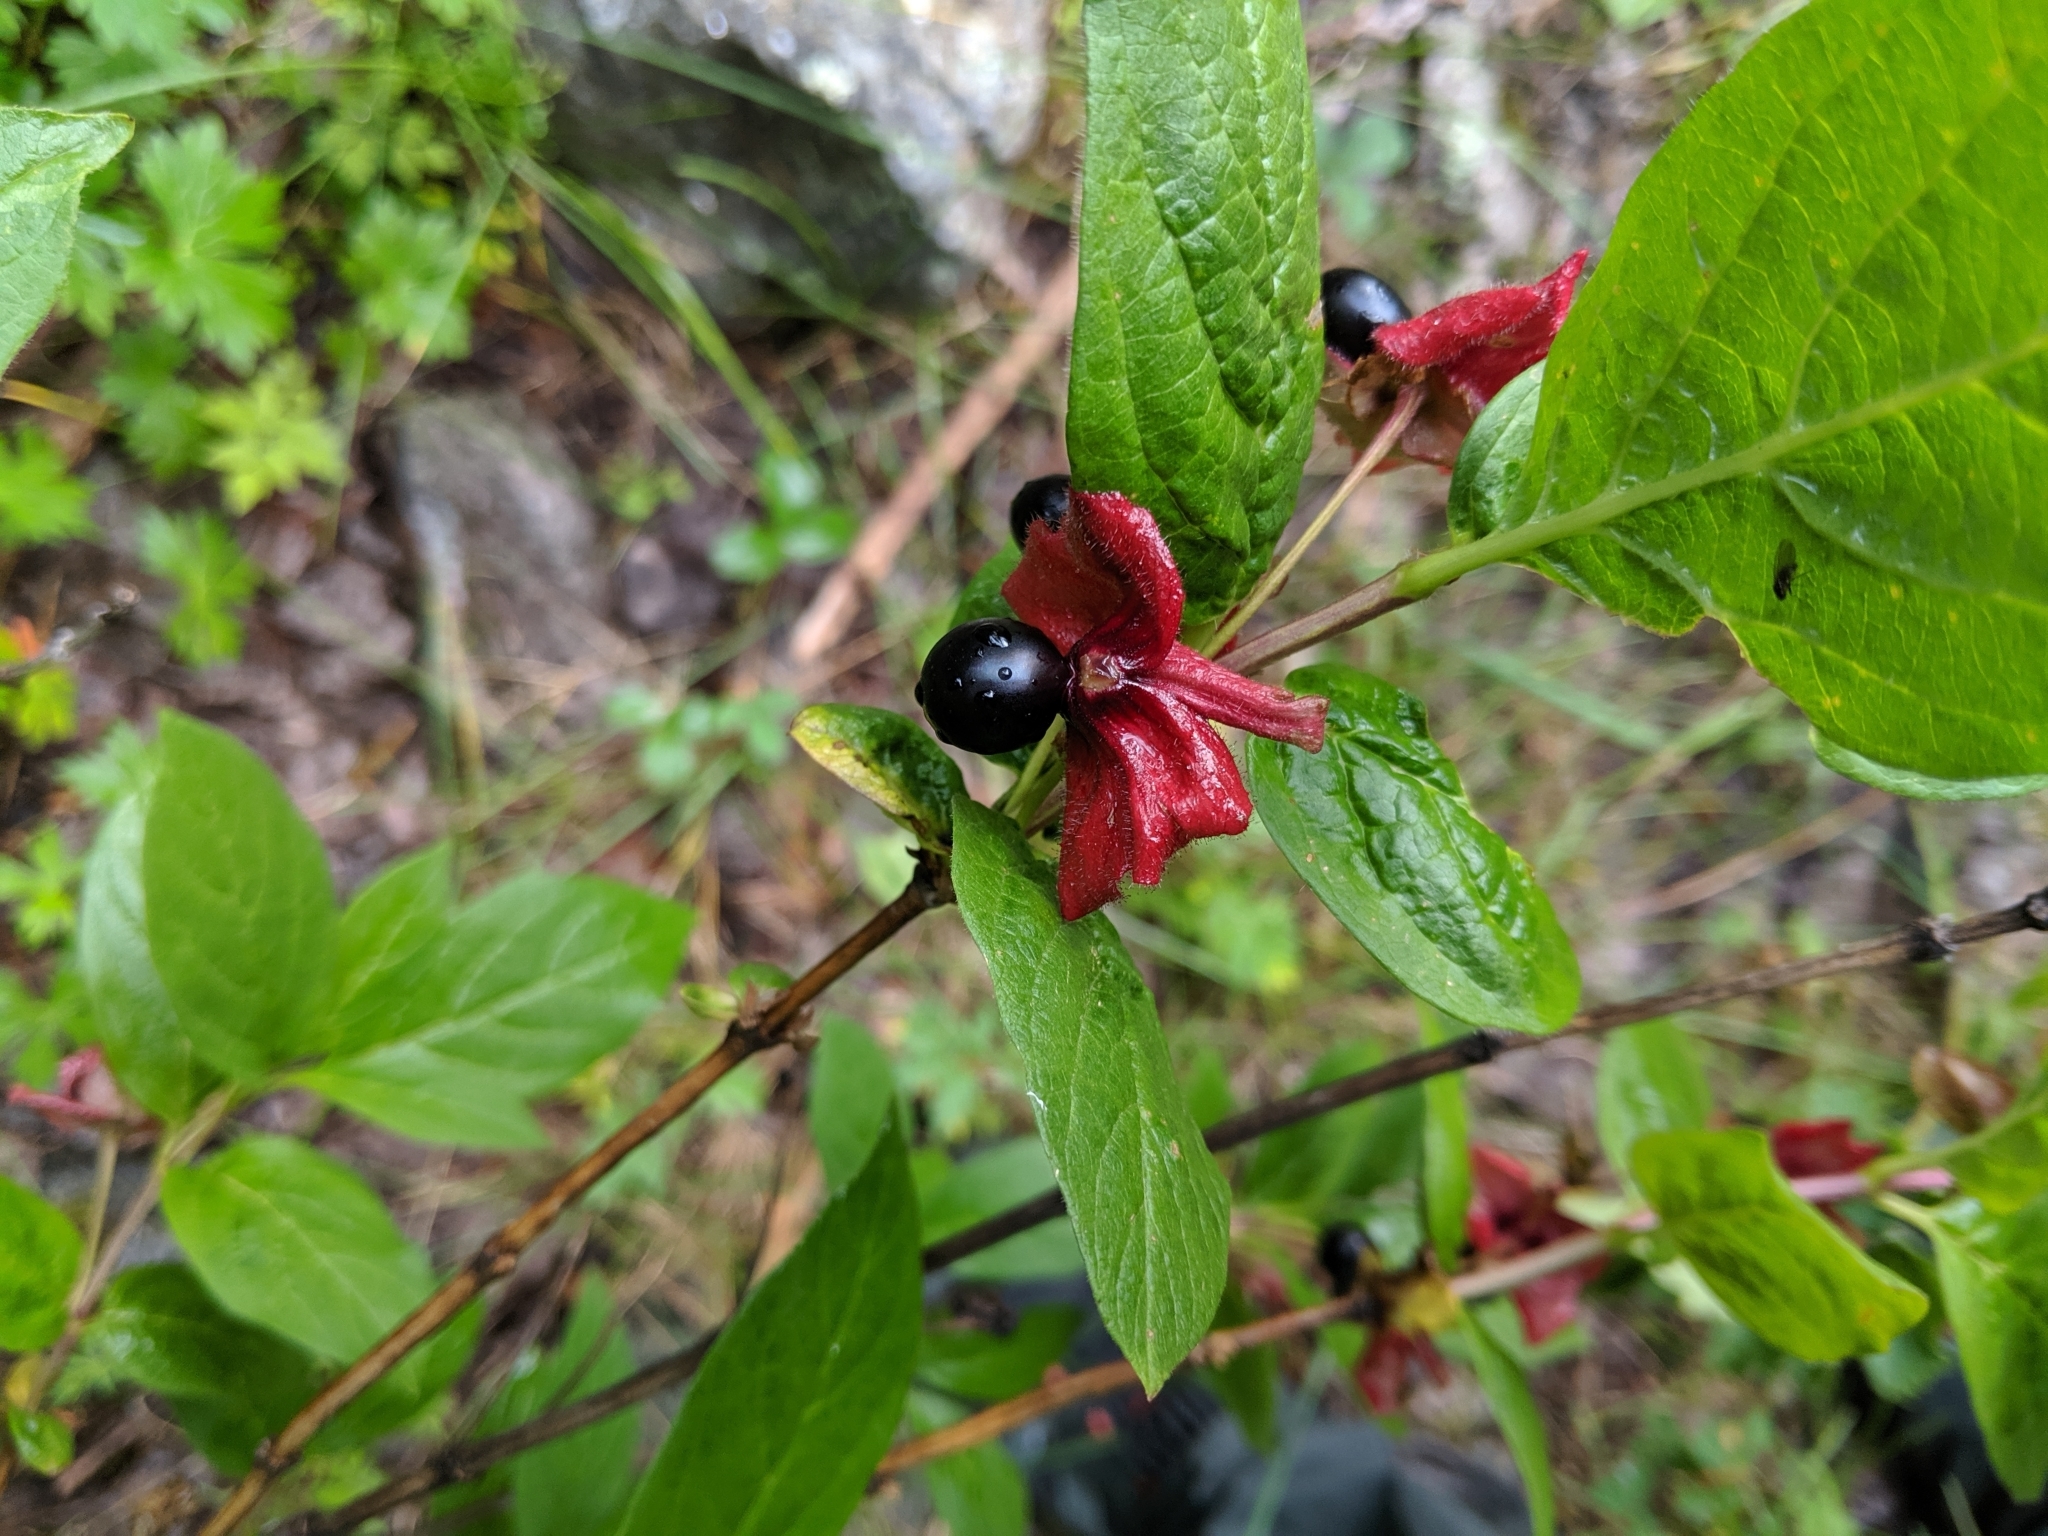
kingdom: Plantae
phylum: Tracheophyta
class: Magnoliopsida
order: Dipsacales
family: Caprifoliaceae
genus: Lonicera
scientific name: Lonicera involucrata
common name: Californian honeysuckle
